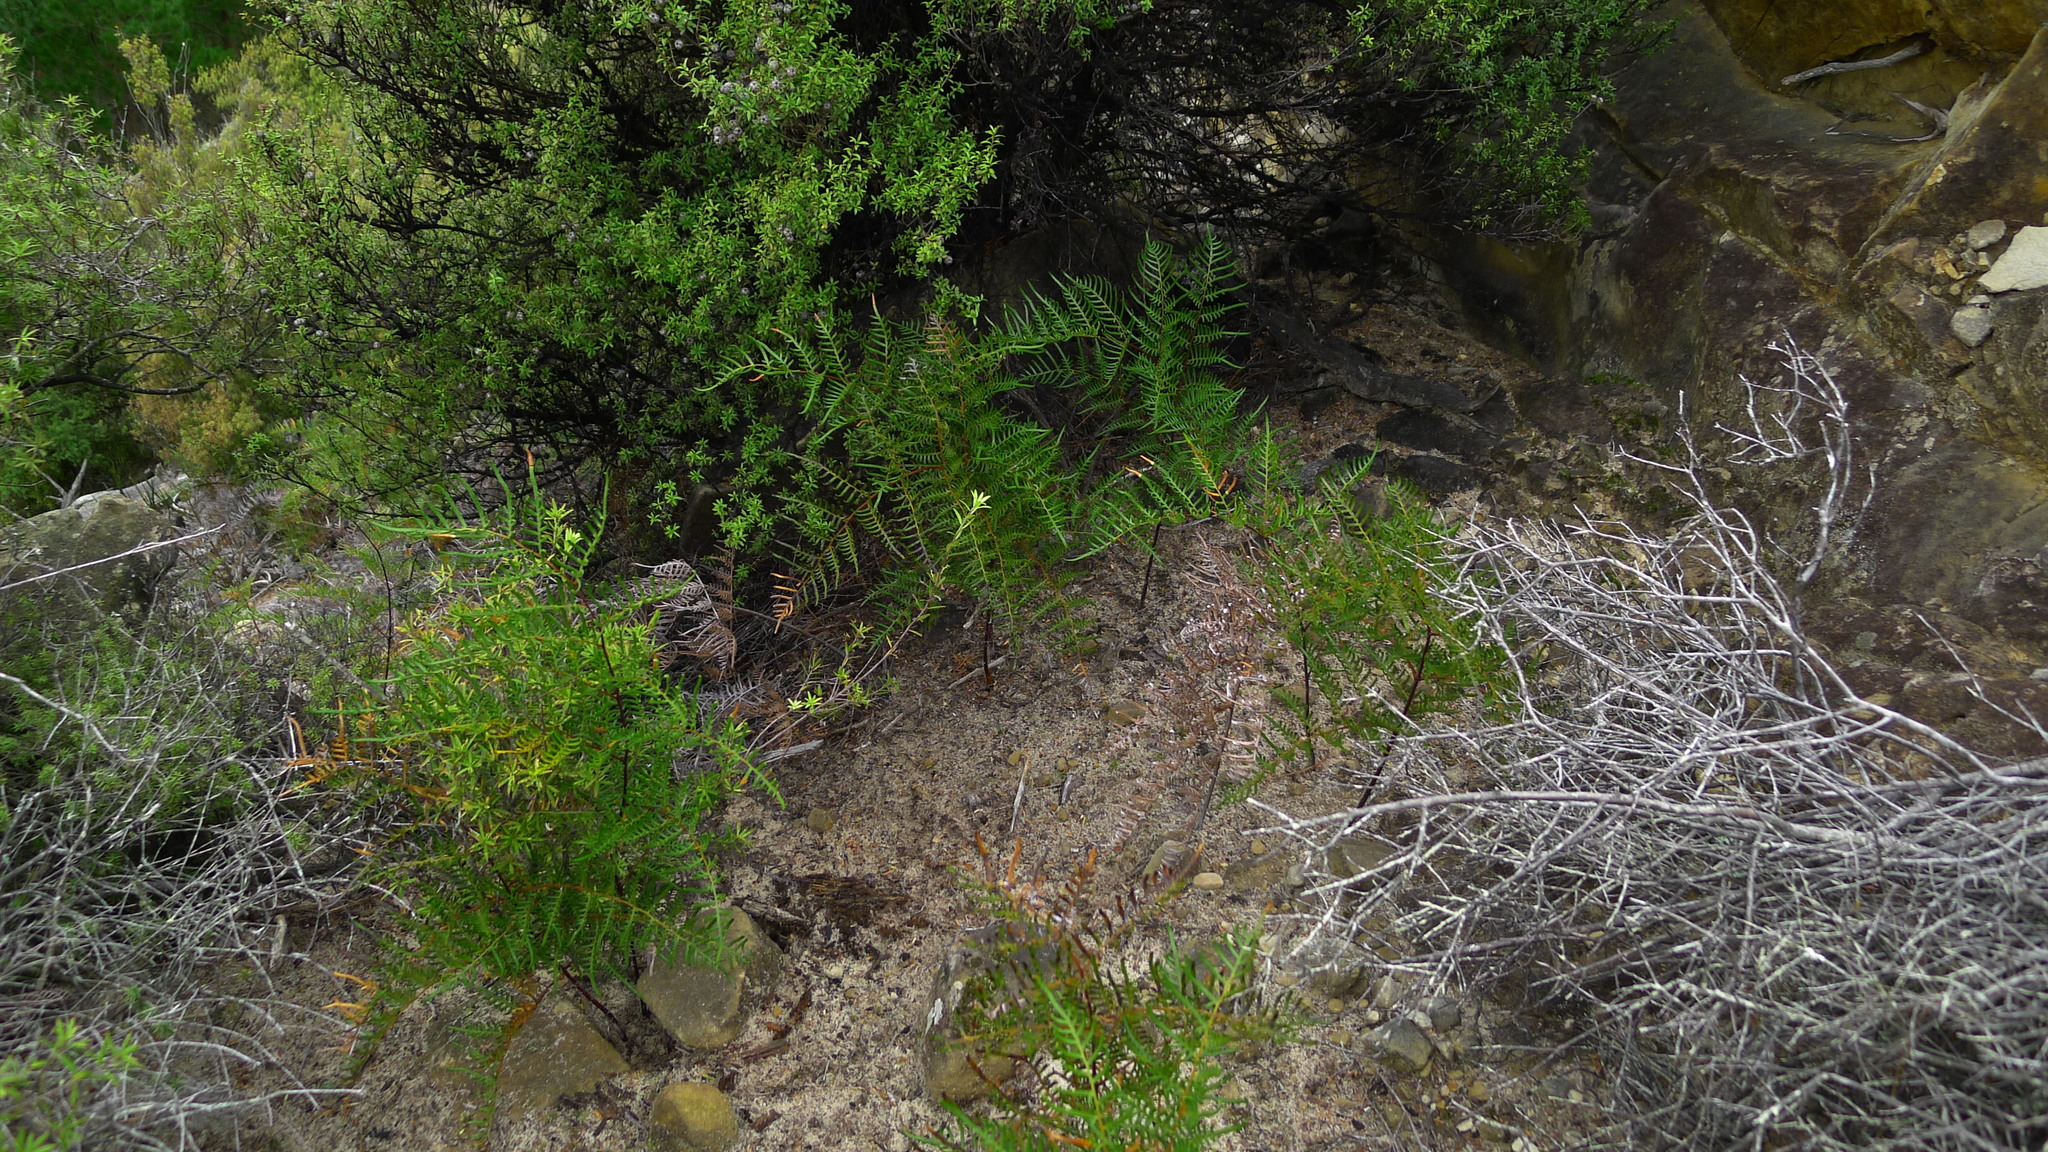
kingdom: Plantae
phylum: Tracheophyta
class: Polypodiopsida
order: Polypodiales
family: Dennstaedtiaceae
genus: Pteridium
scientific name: Pteridium esculentum
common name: Bracken fern
